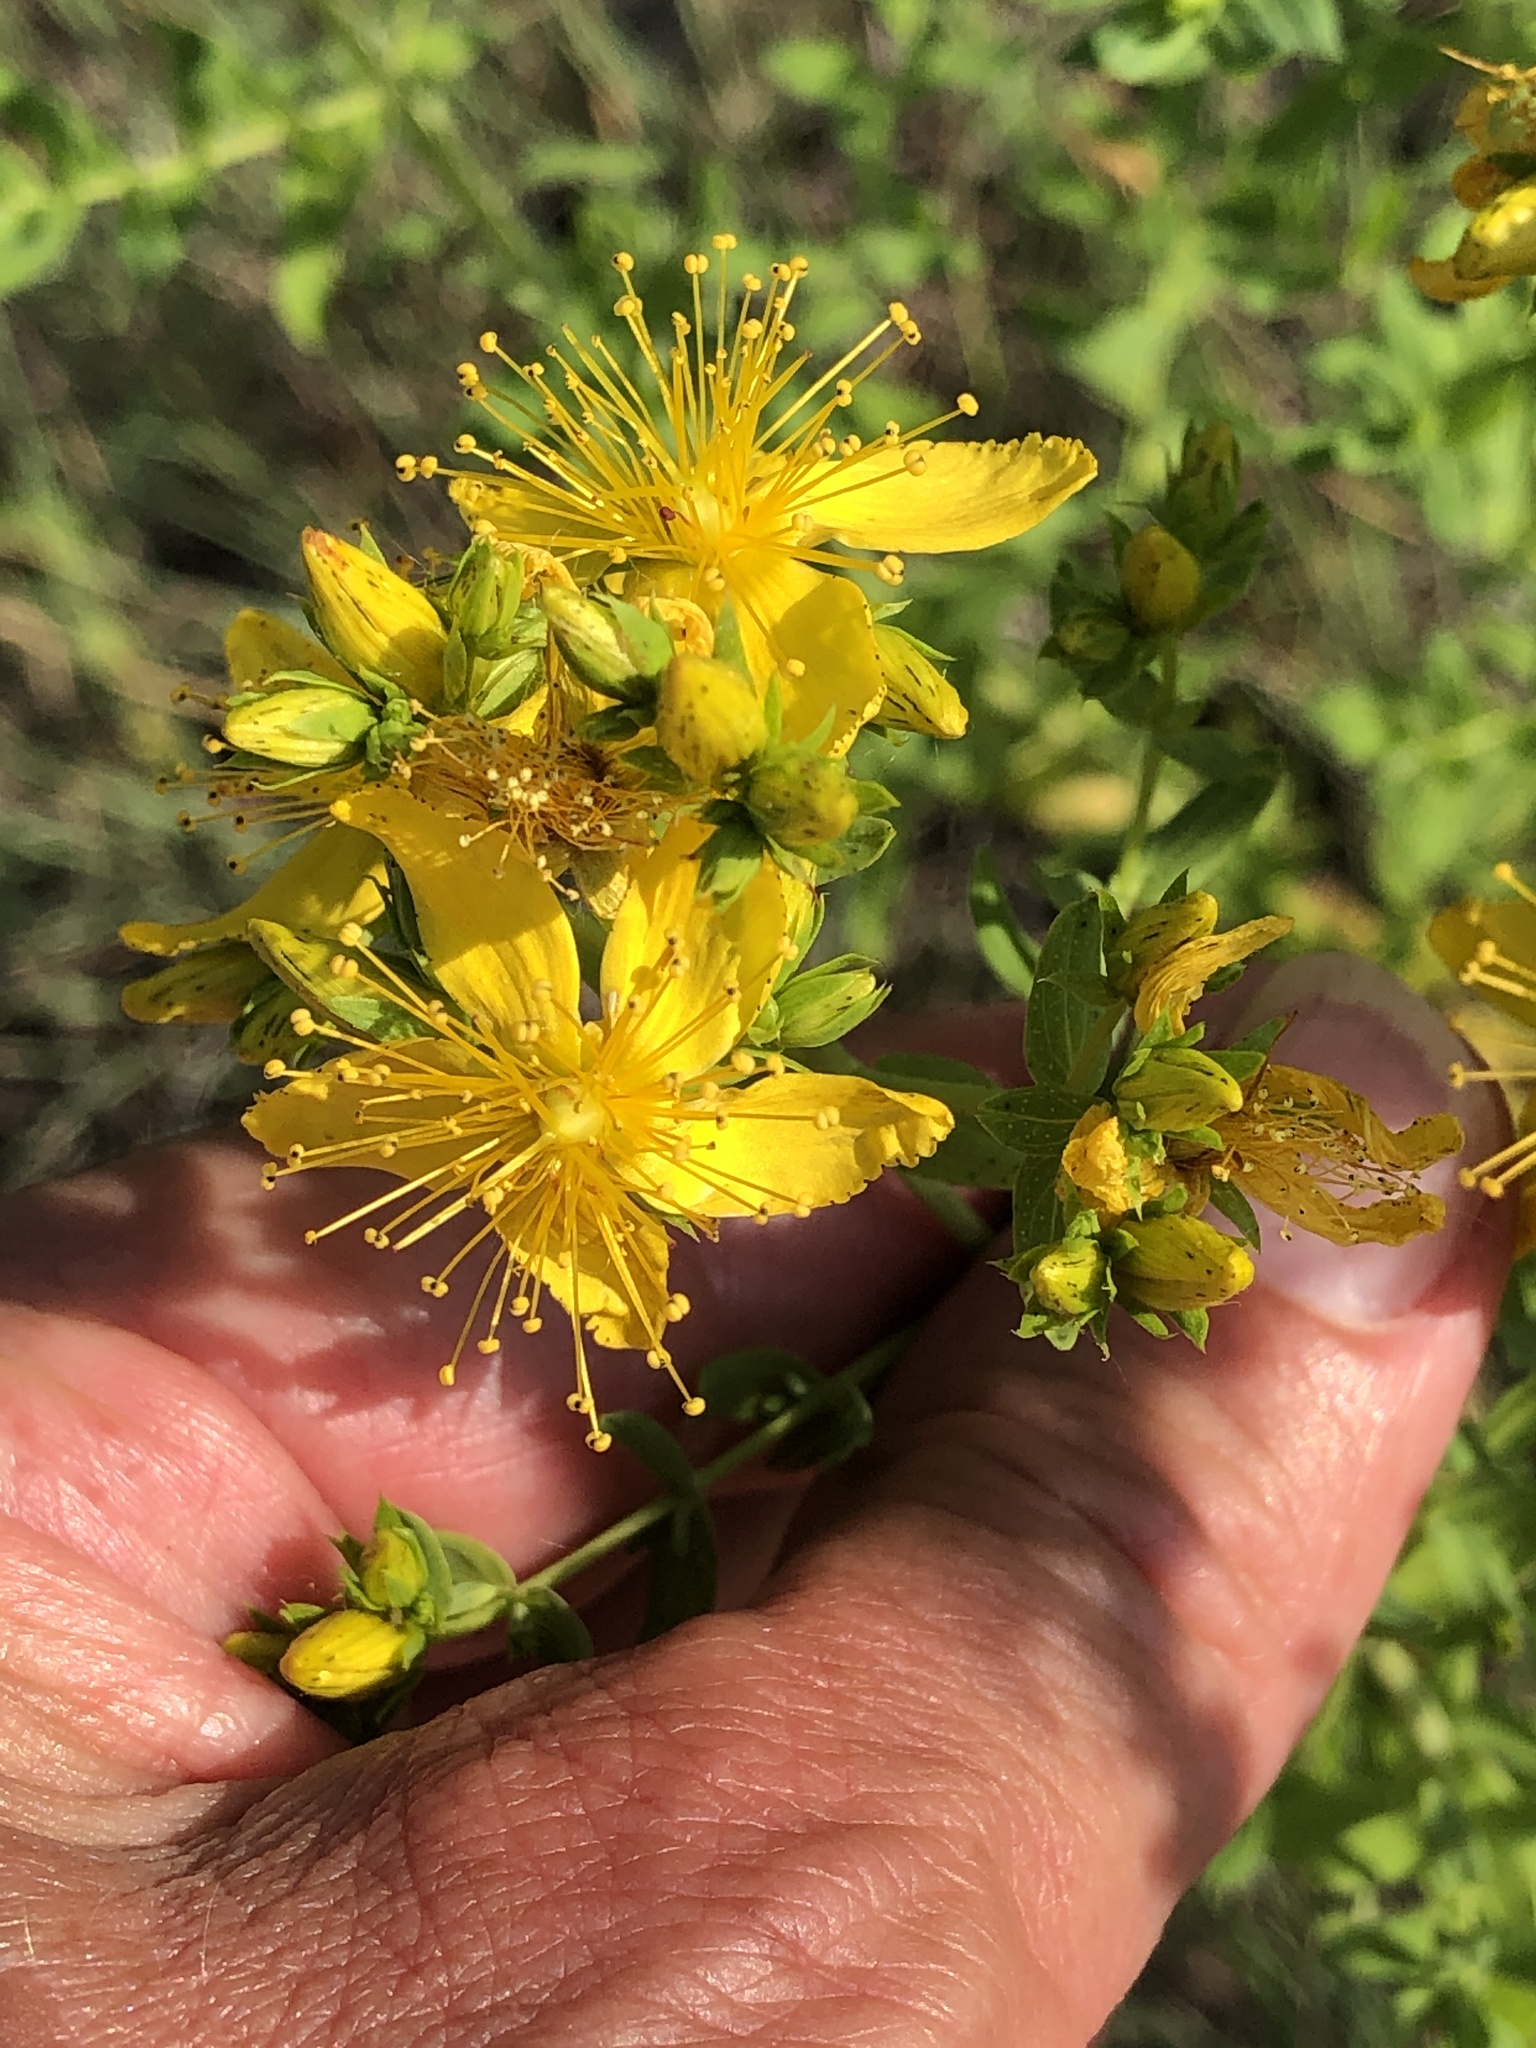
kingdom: Plantae
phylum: Tracheophyta
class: Magnoliopsida
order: Malpighiales
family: Hypericaceae
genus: Hypericum
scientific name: Hypericum perforatum
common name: Common st. johnswort
